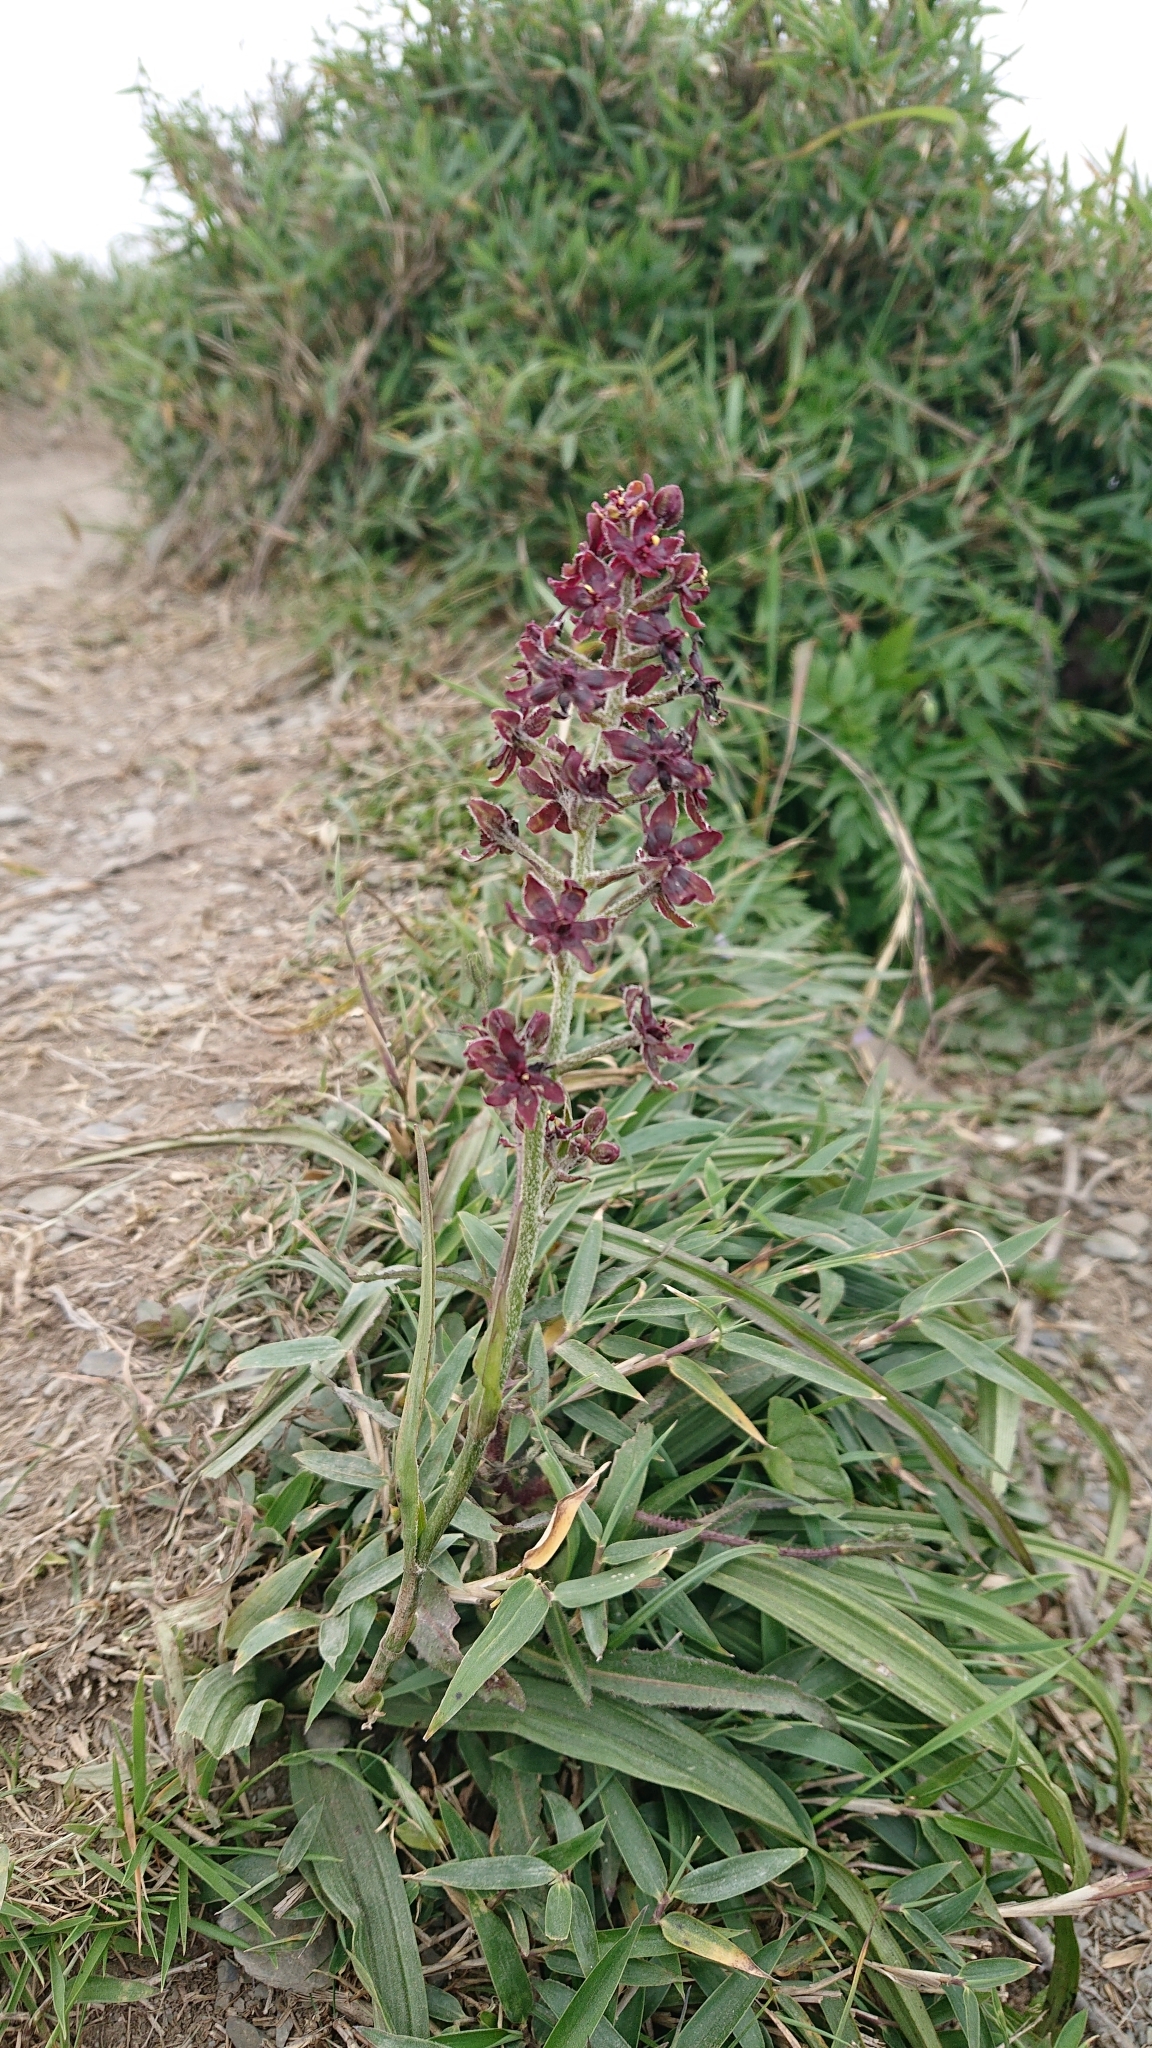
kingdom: Plantae
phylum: Tracheophyta
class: Liliopsida
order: Liliales
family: Melanthiaceae
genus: Veratrum
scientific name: Veratrum formosanum
